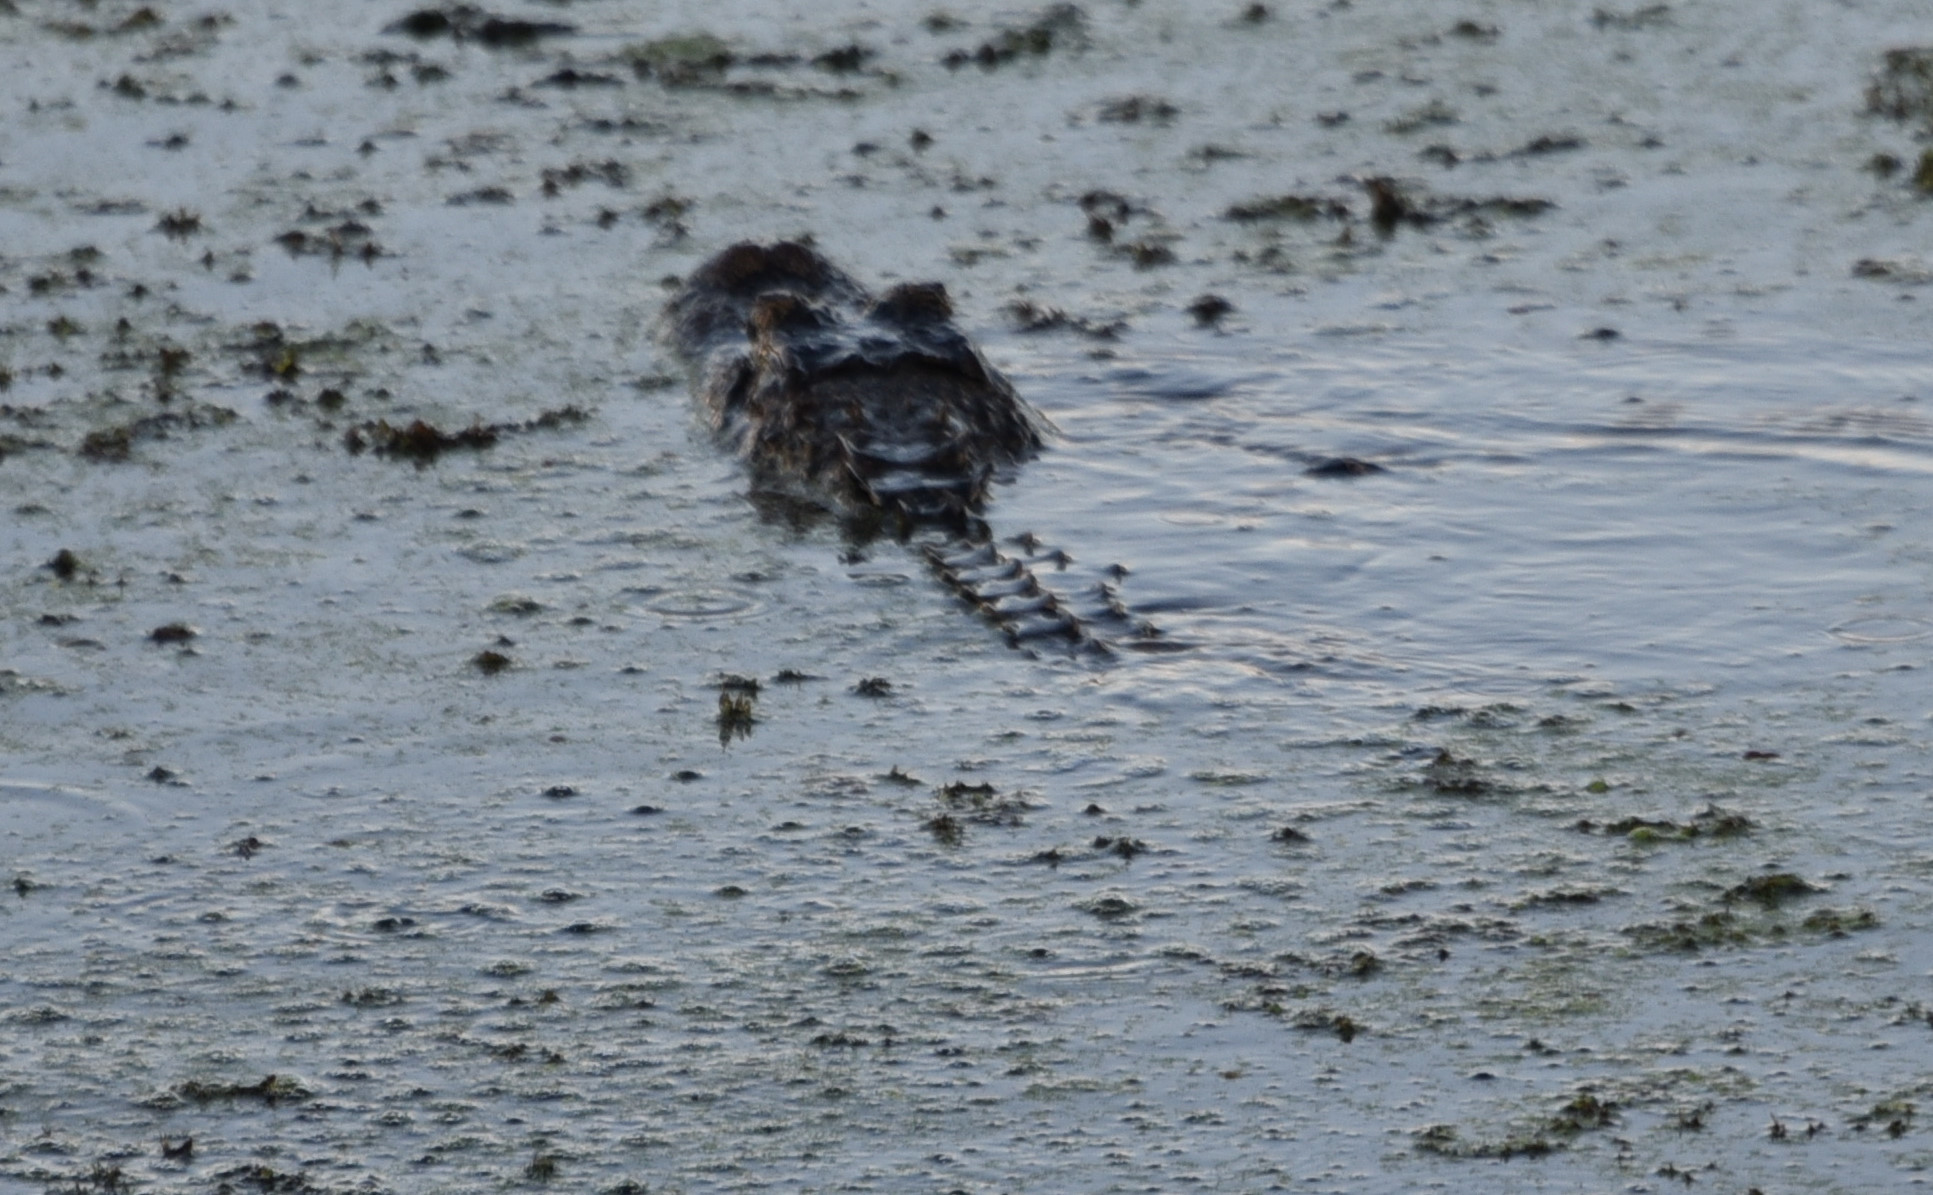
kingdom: Animalia
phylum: Chordata
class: Crocodylia
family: Alligatoridae
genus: Alligator
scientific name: Alligator mississippiensis
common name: American alligator
